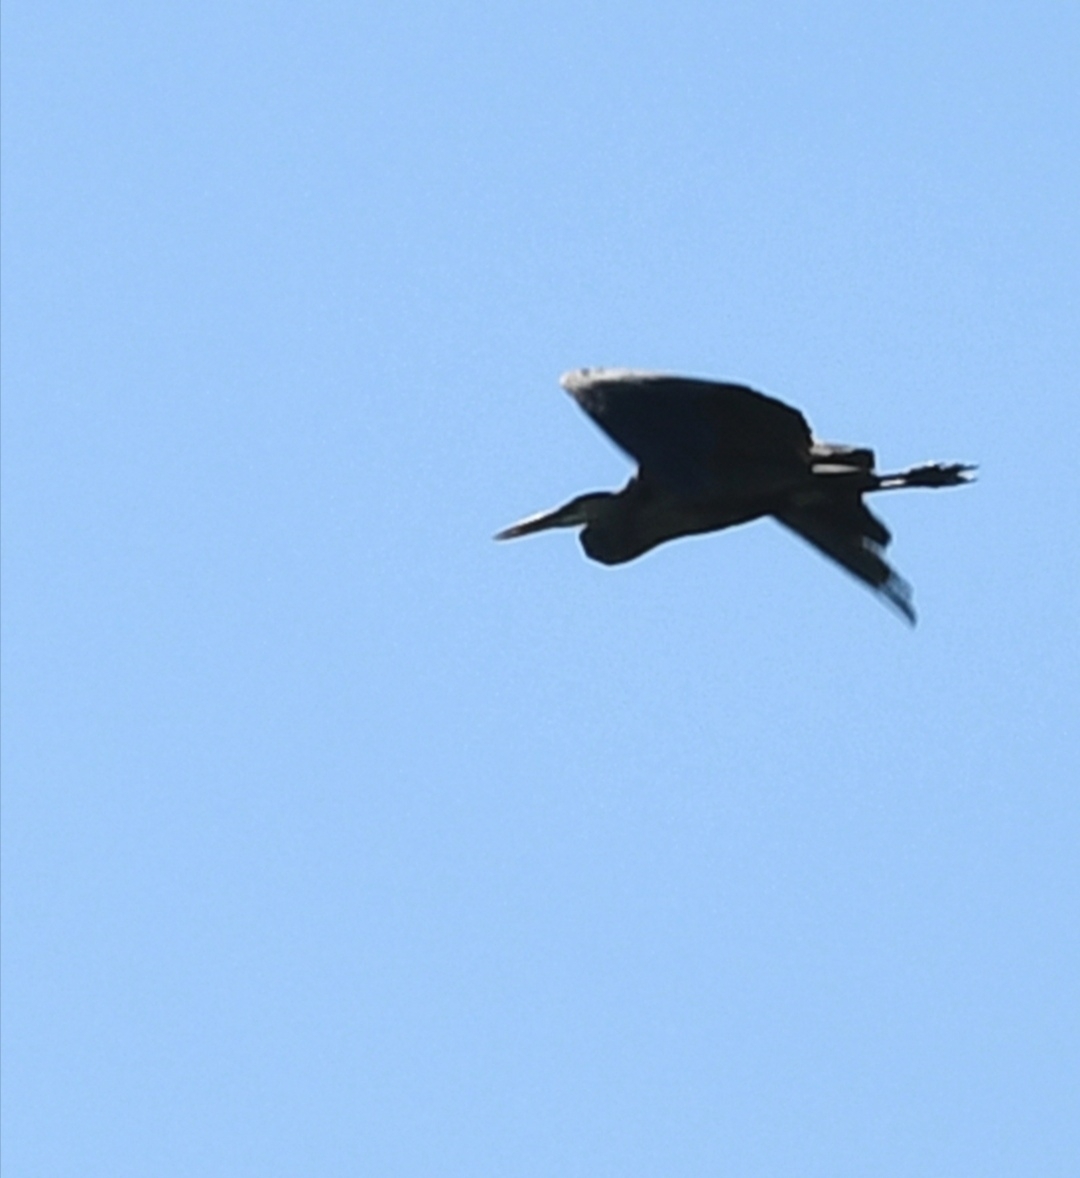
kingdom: Animalia
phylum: Chordata
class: Aves
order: Pelecaniformes
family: Ardeidae
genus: Ardea
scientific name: Ardea herodias
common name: Great blue heron
